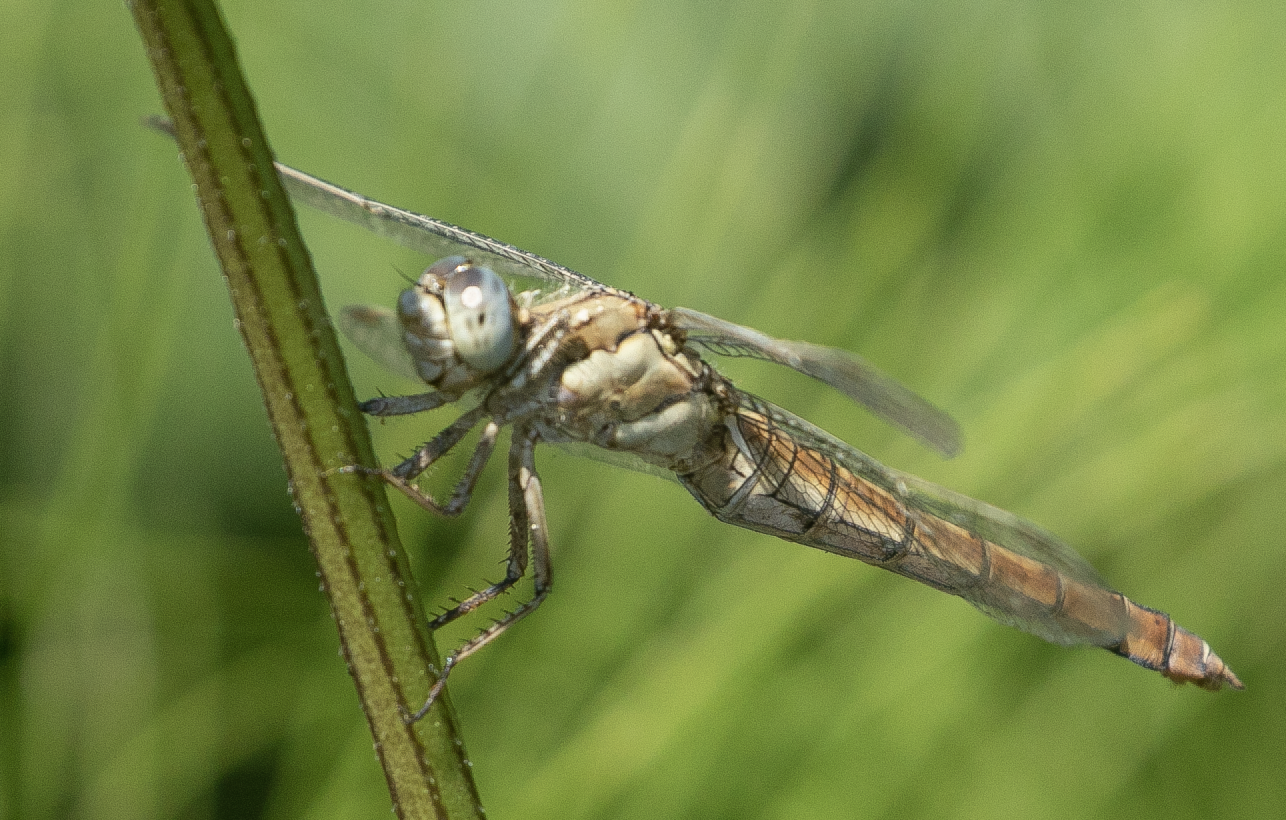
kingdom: Animalia
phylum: Arthropoda
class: Insecta
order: Odonata
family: Libellulidae
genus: Orthetrum
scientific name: Orthetrum brunneum
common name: Southern skimmer
